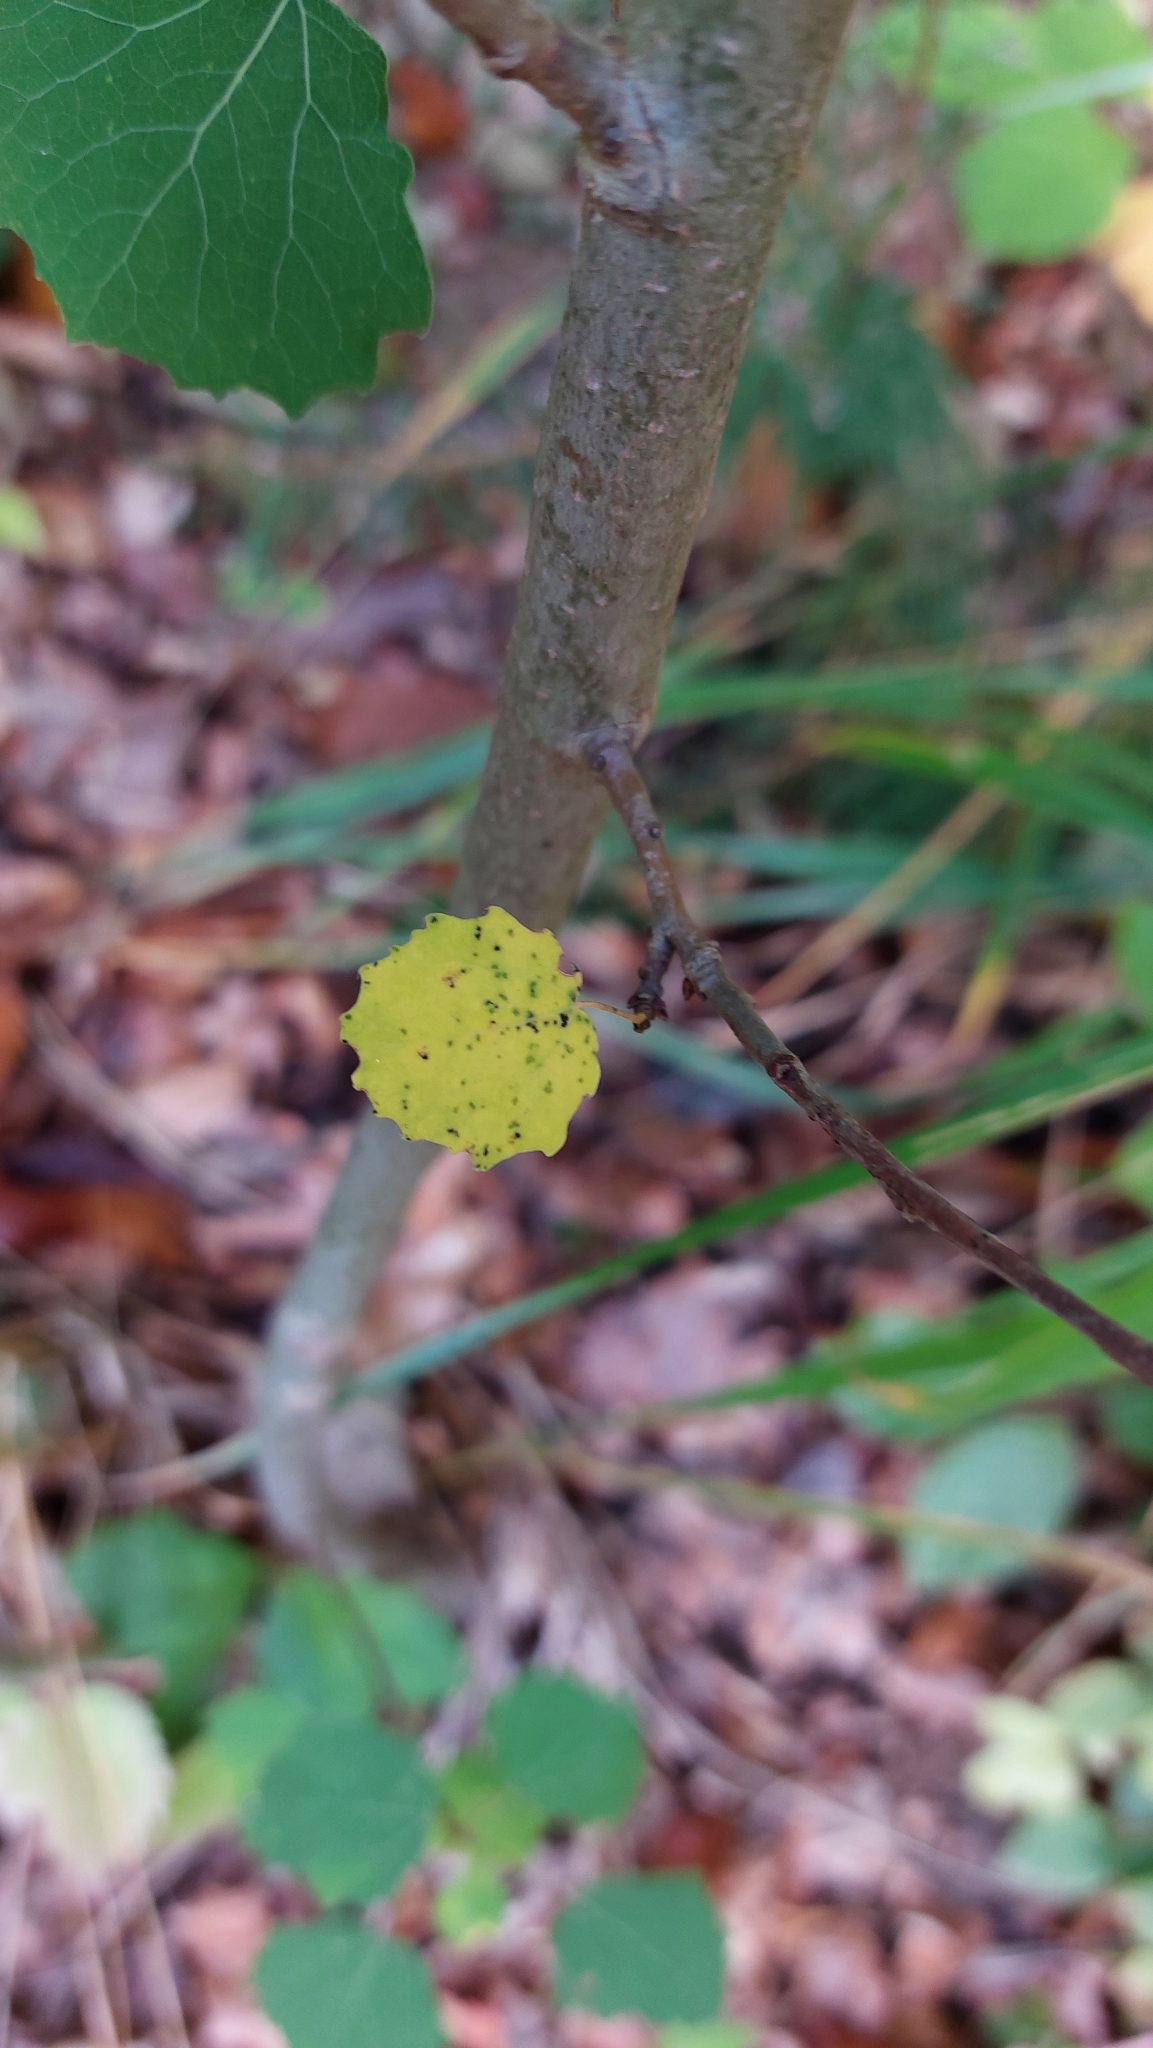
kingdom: Plantae
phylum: Tracheophyta
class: Magnoliopsida
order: Malpighiales
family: Salicaceae
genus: Populus
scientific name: Populus tremula
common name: European aspen
